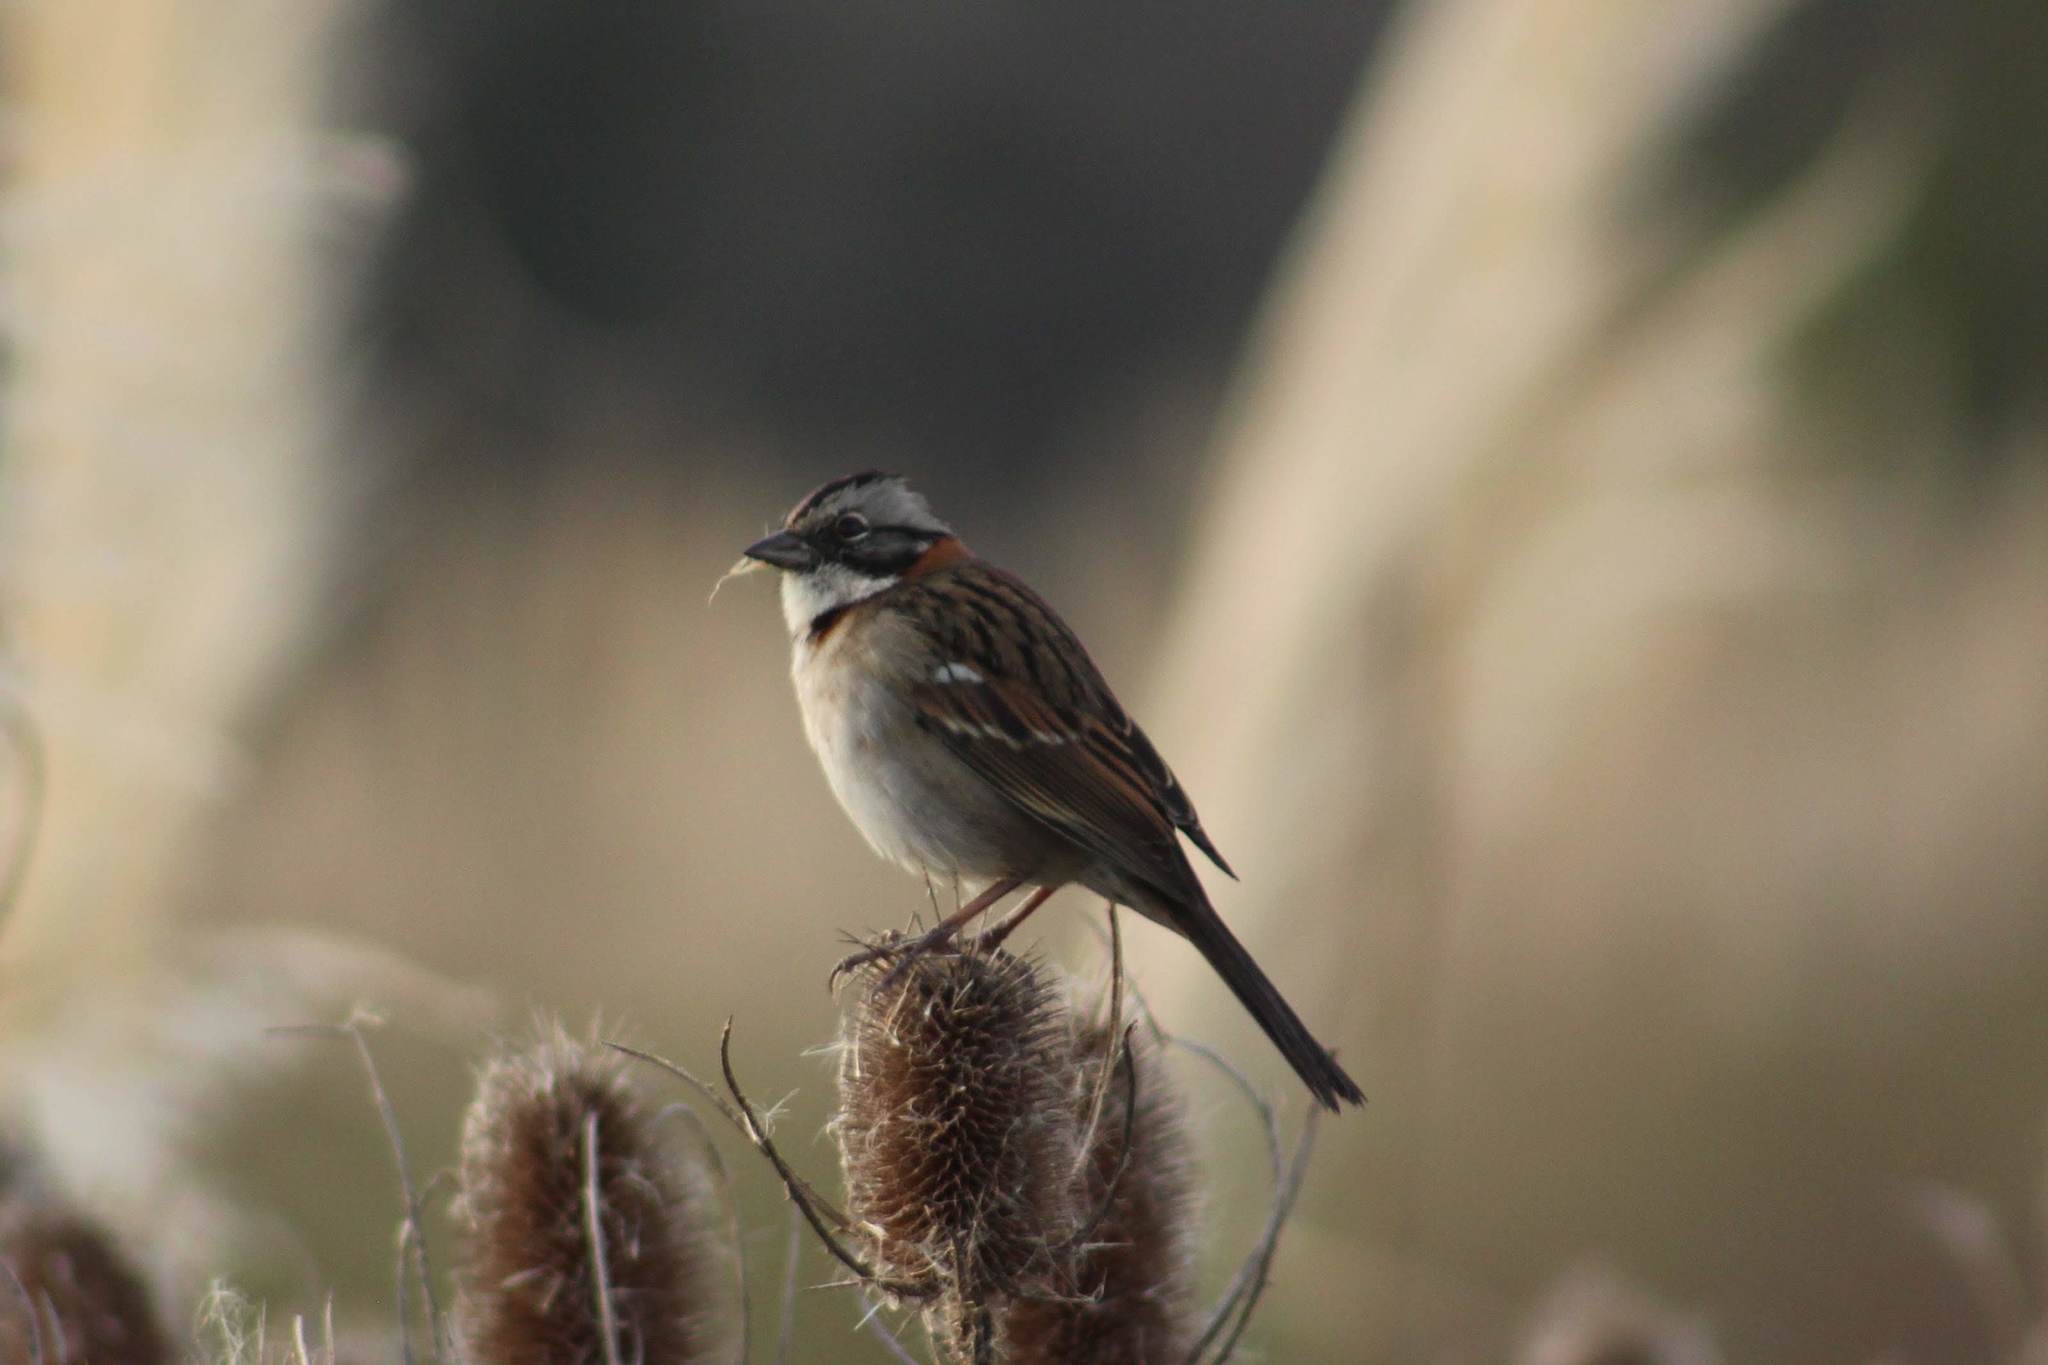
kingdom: Animalia
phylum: Chordata
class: Aves
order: Passeriformes
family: Passerellidae
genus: Zonotrichia
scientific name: Zonotrichia capensis
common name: Rufous-collared sparrow
